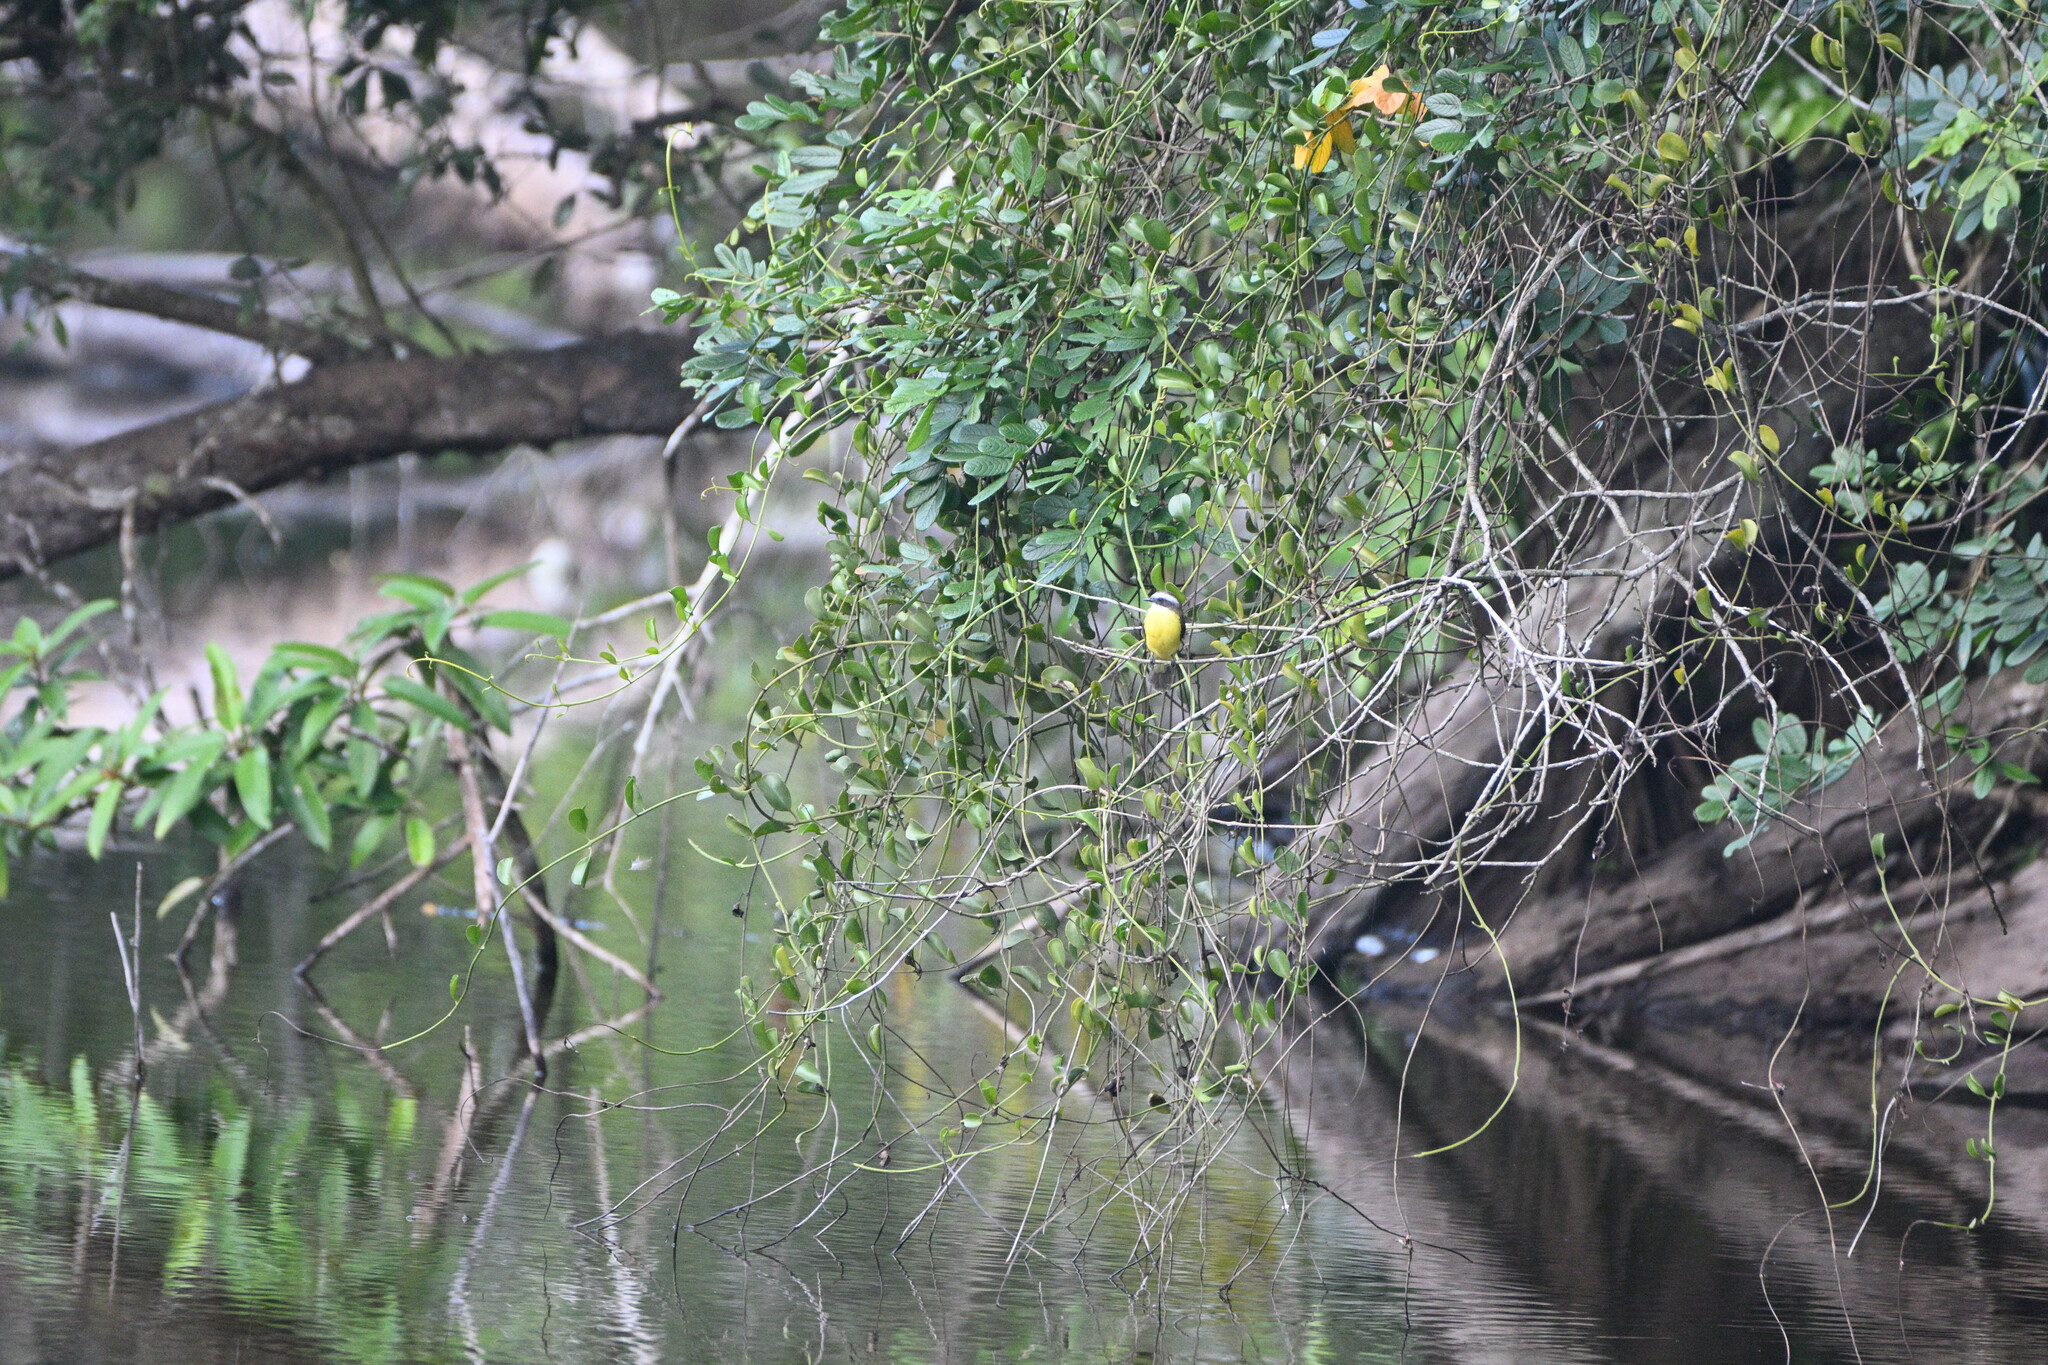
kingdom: Animalia
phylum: Chordata
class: Aves
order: Passeriformes
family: Tyrannidae
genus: Myiozetetes
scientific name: Myiozetetes similis
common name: Social flycatcher
